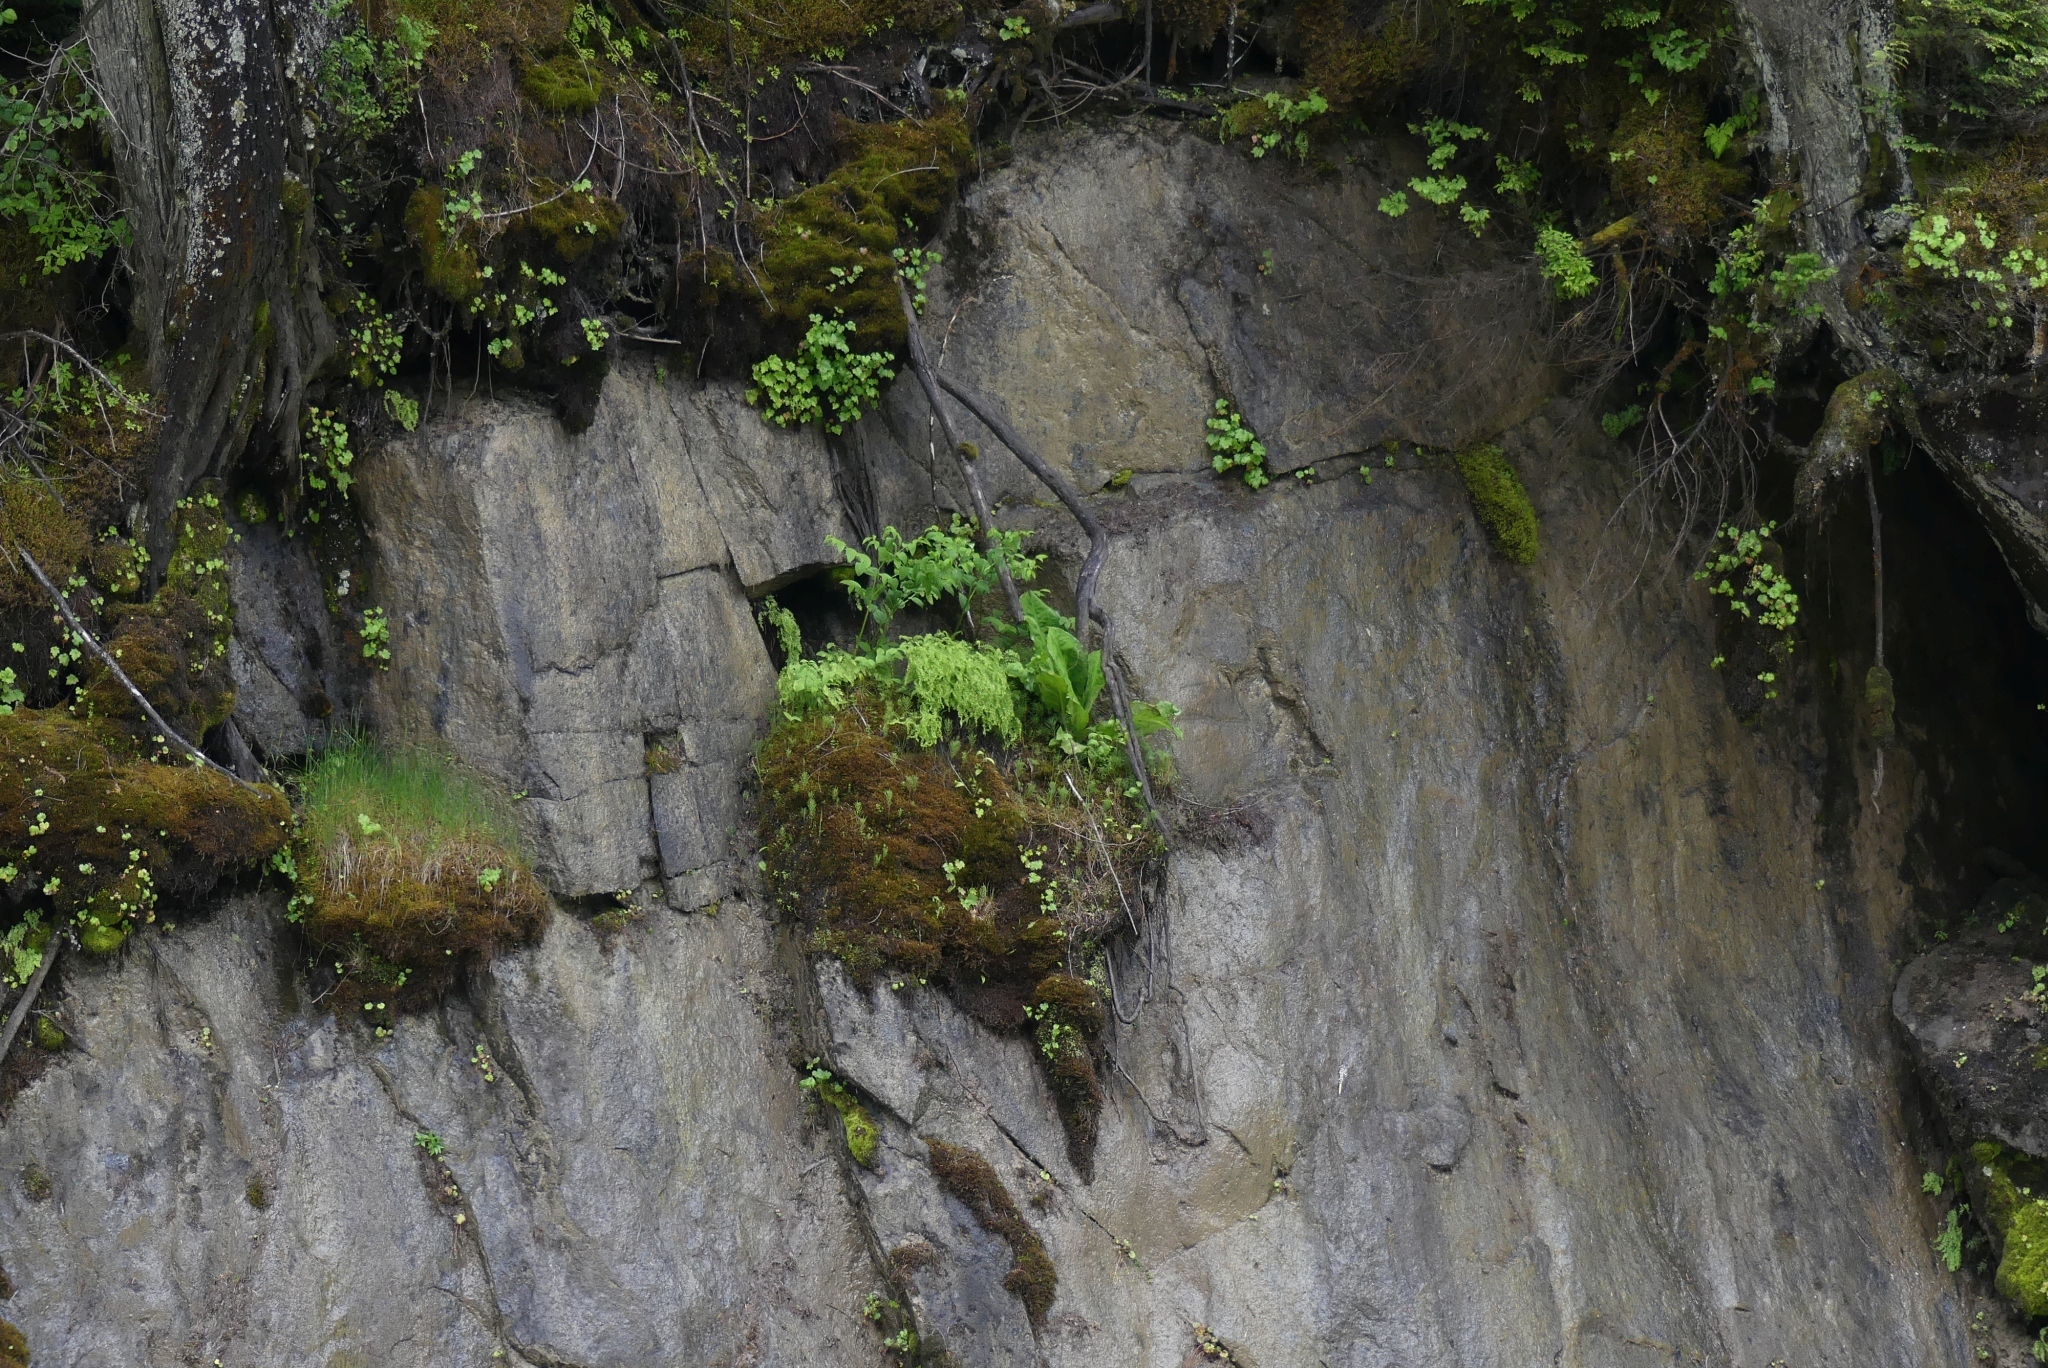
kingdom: Plantae
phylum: Tracheophyta
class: Liliopsida
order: Alismatales
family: Araceae
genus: Lysichiton
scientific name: Lysichiton americanus
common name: American skunk cabbage
